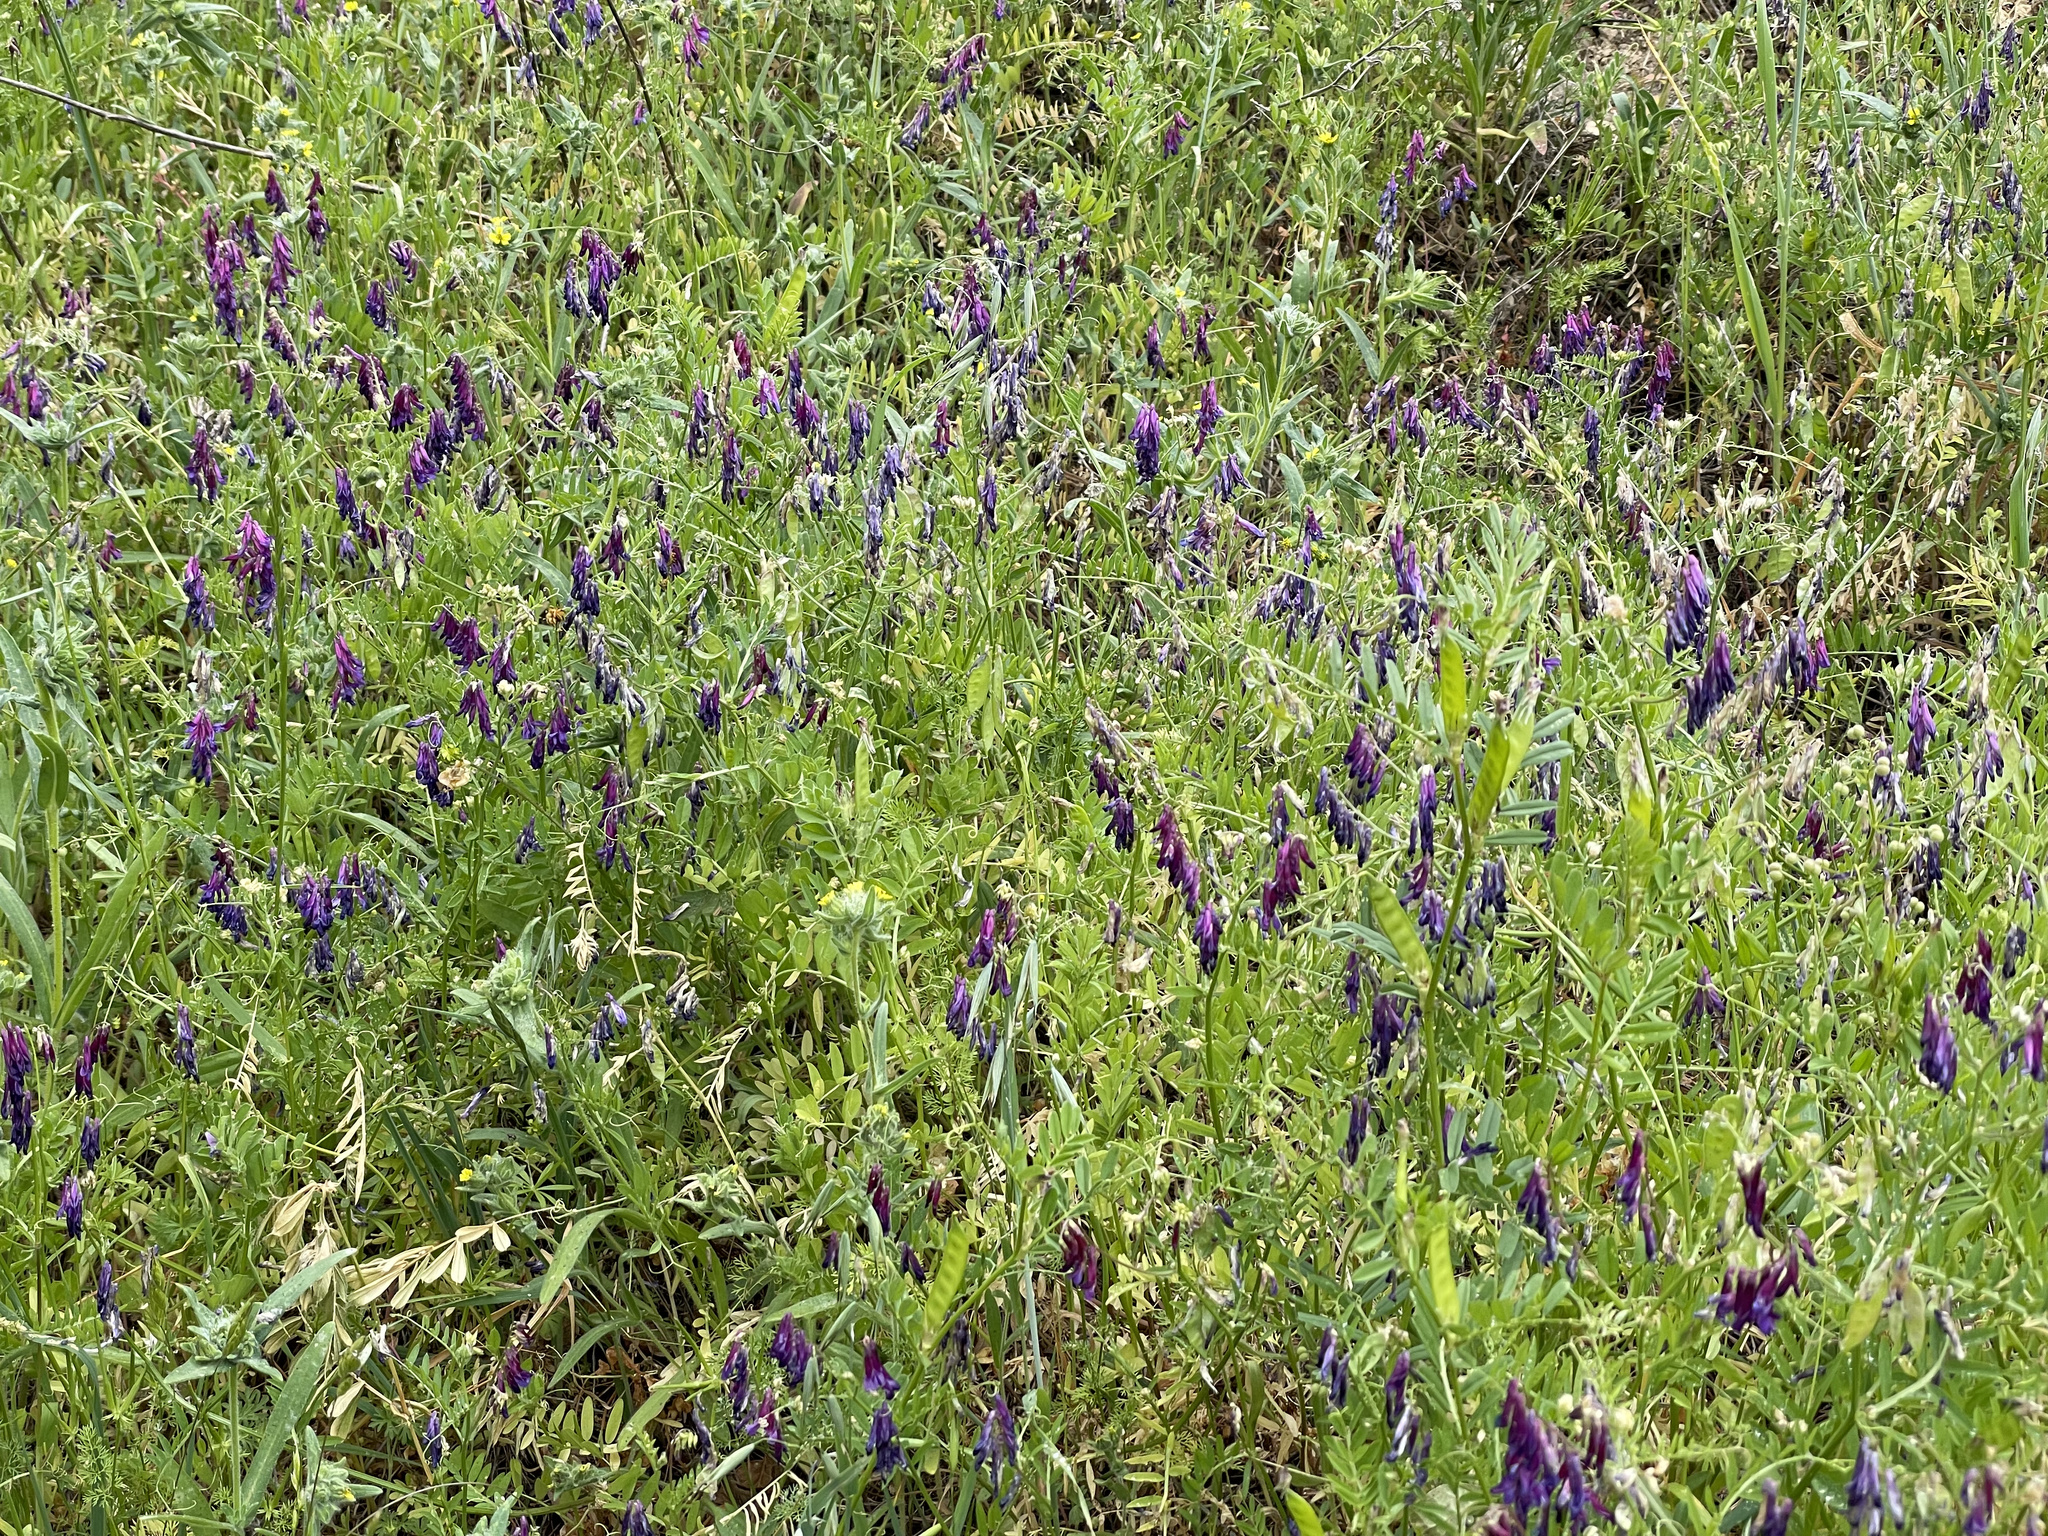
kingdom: Plantae
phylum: Tracheophyta
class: Magnoliopsida
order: Fabales
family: Fabaceae
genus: Vicia
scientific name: Vicia villosa
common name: Fodder vetch
